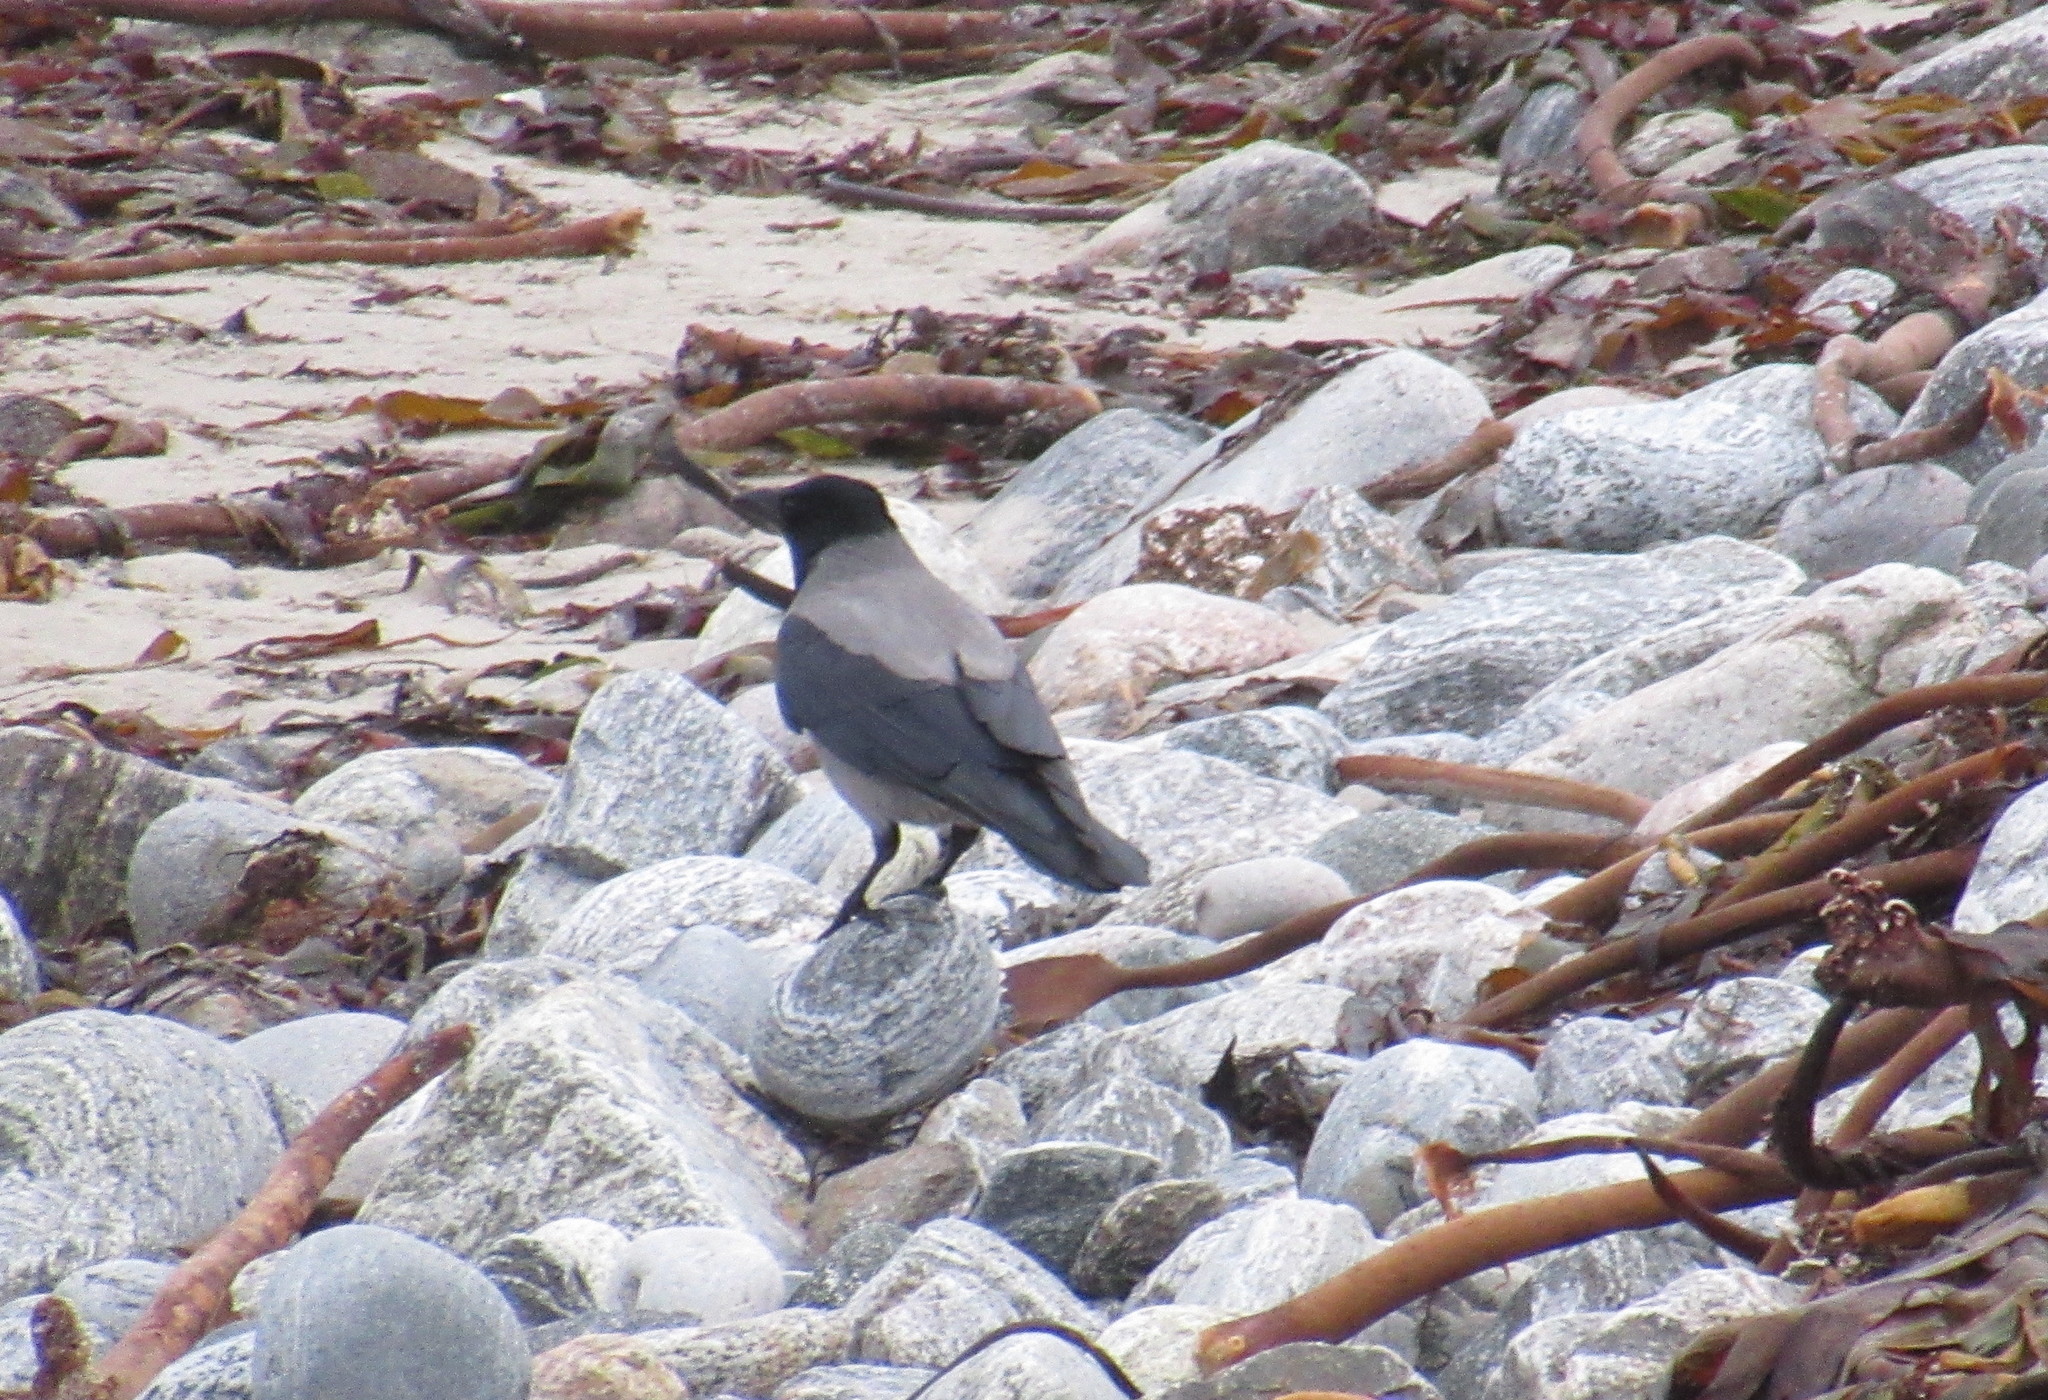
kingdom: Animalia
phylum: Chordata
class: Aves
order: Passeriformes
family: Corvidae
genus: Corvus
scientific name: Corvus cornix
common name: Hooded crow
